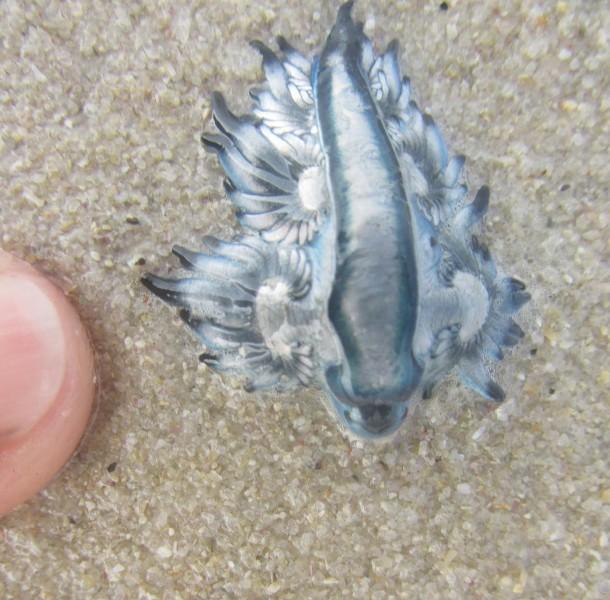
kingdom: Animalia
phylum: Mollusca
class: Gastropoda
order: Nudibranchia
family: Glaucidae
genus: Glaucus
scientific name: Glaucus atlanticus
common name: Purple ocean slug
